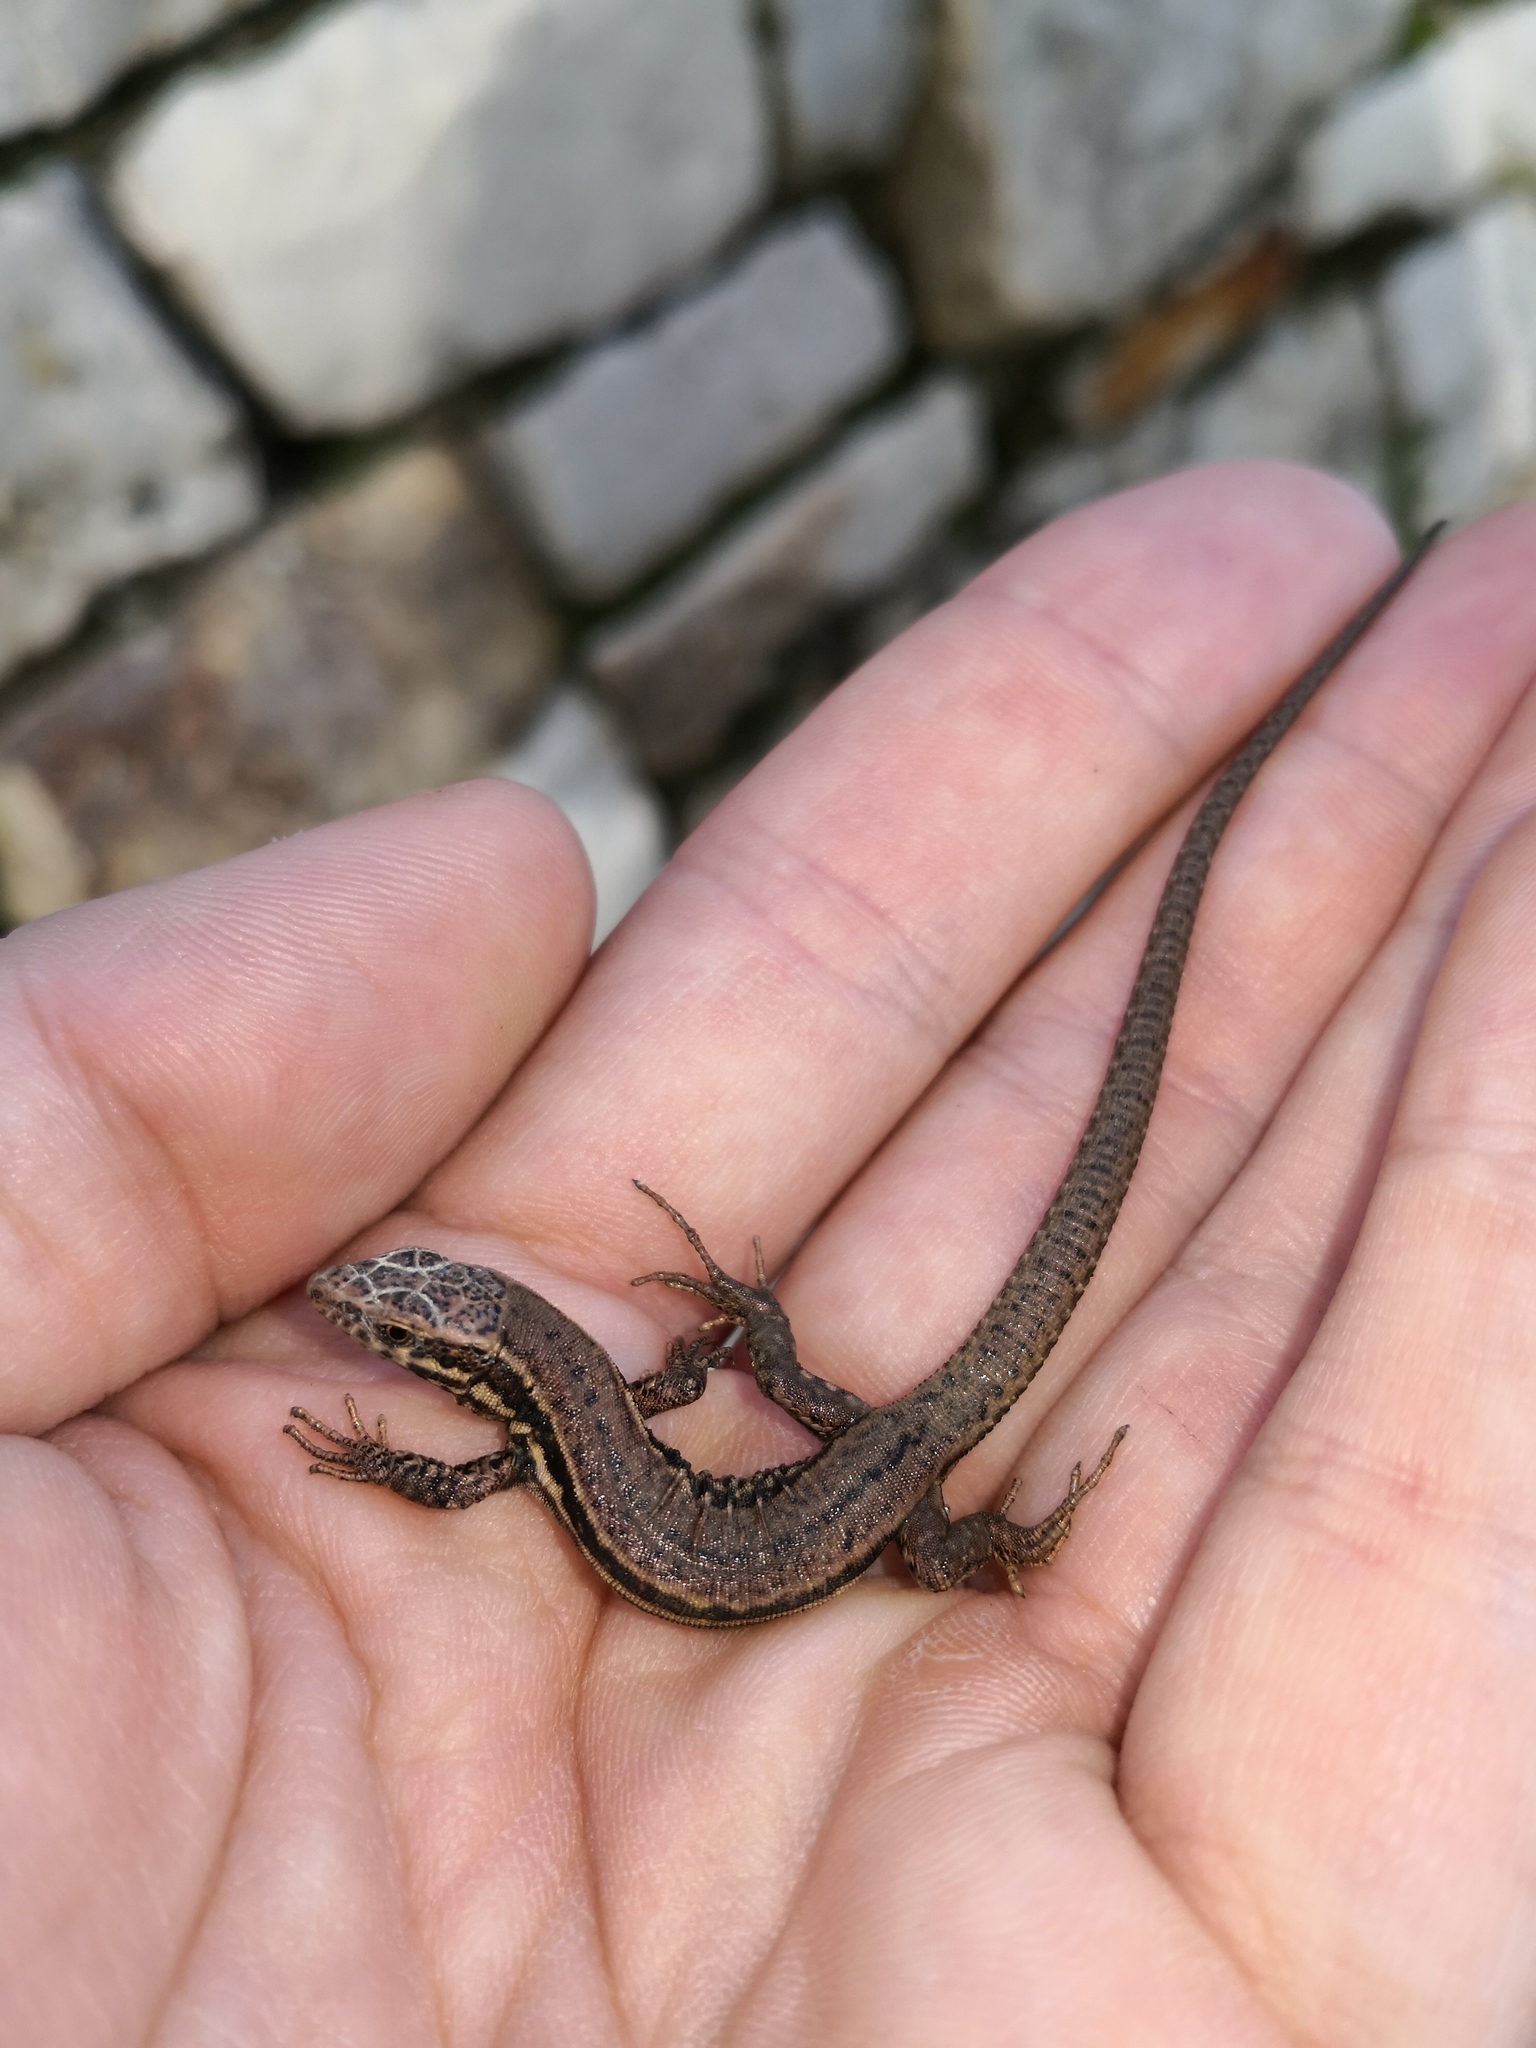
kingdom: Animalia
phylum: Chordata
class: Squamata
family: Lacertidae
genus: Podarcis
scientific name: Podarcis muralis
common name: Common wall lizard
